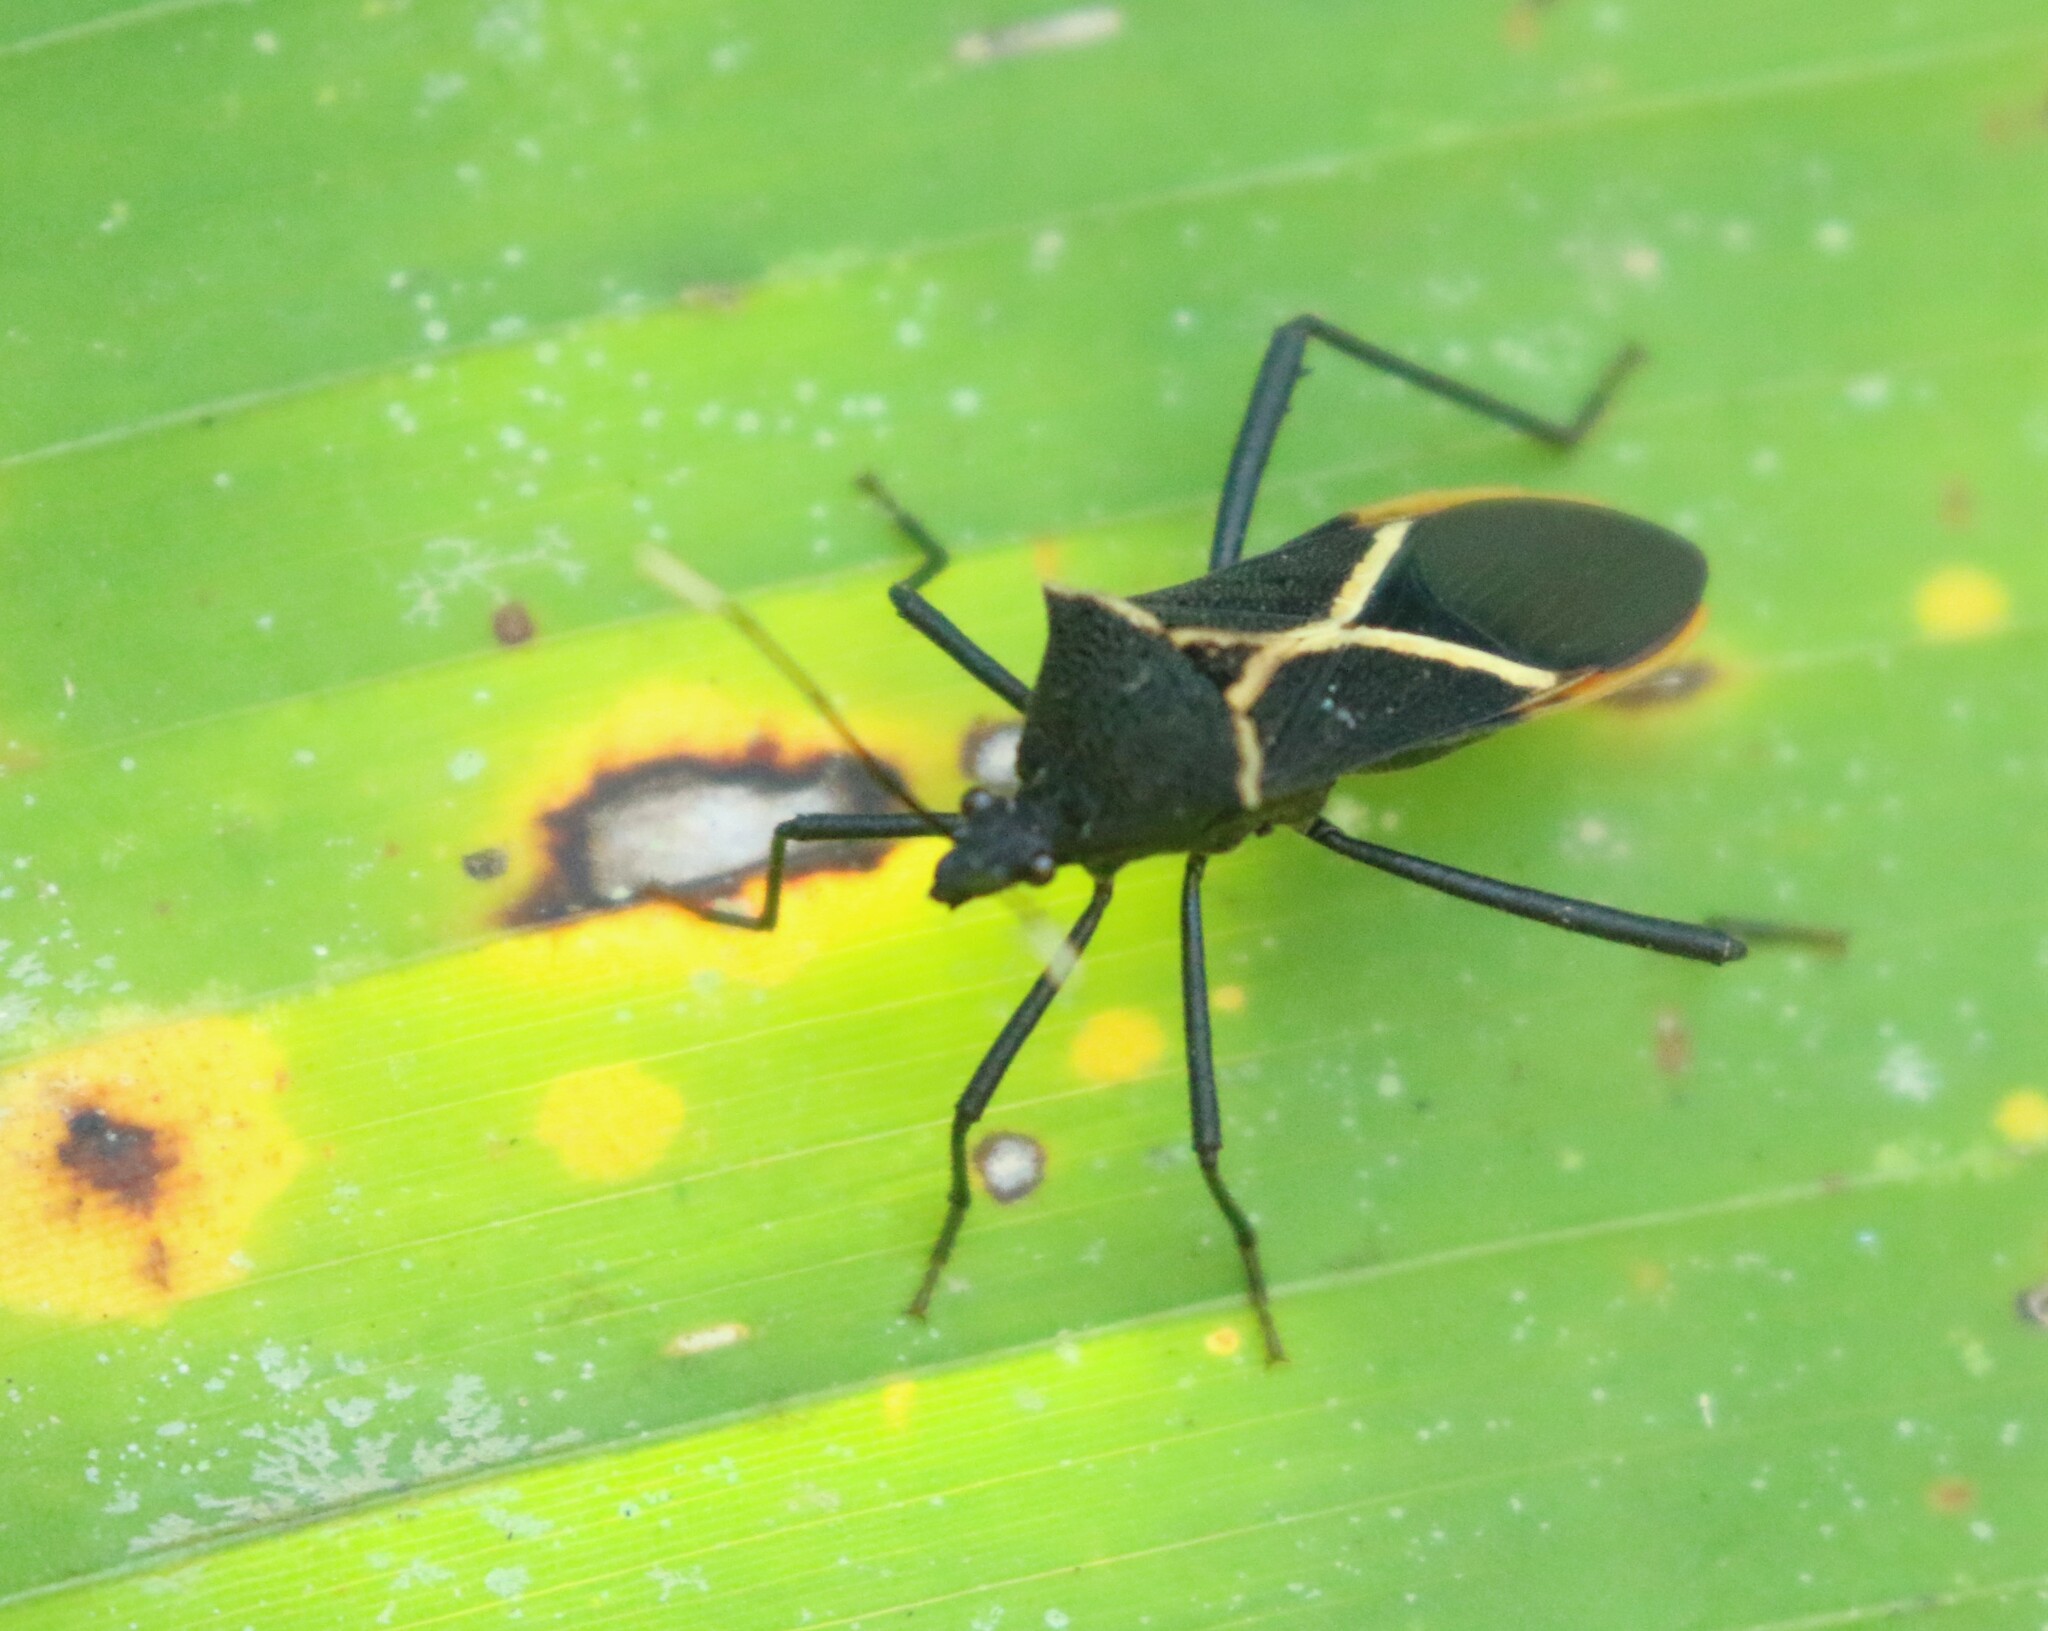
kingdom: Animalia
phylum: Arthropoda
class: Insecta
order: Hemiptera
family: Coreidae
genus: Leptoscelis
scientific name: Leptoscelis conspicuus
